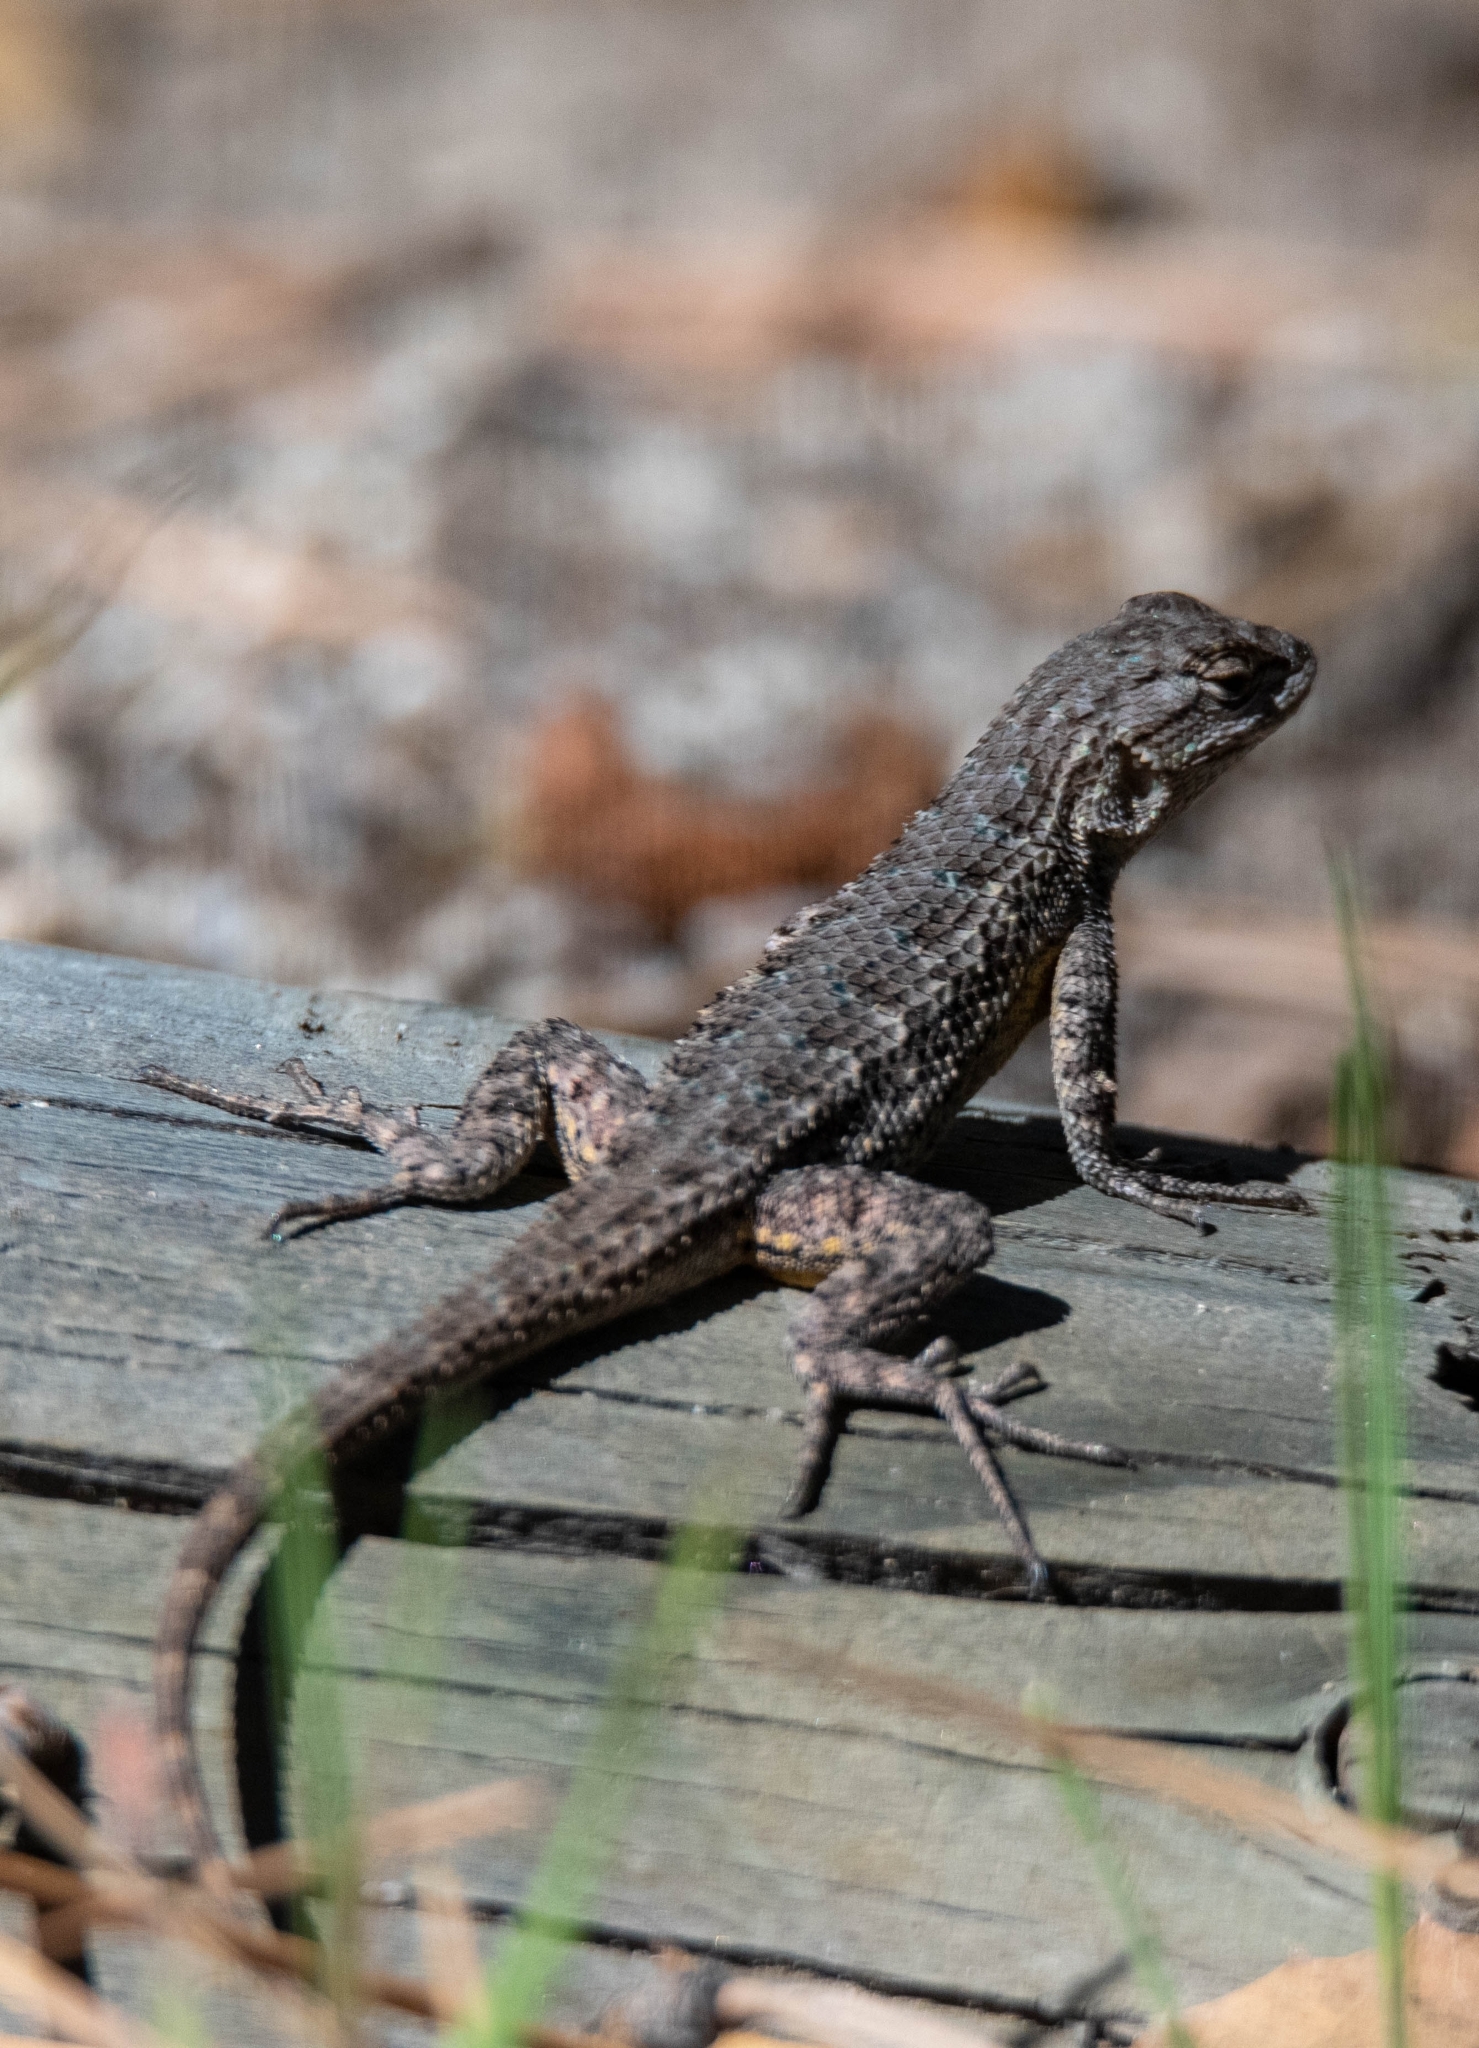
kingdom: Animalia
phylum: Chordata
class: Squamata
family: Phrynosomatidae
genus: Sceloporus
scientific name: Sceloporus occidentalis
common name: Western fence lizard
